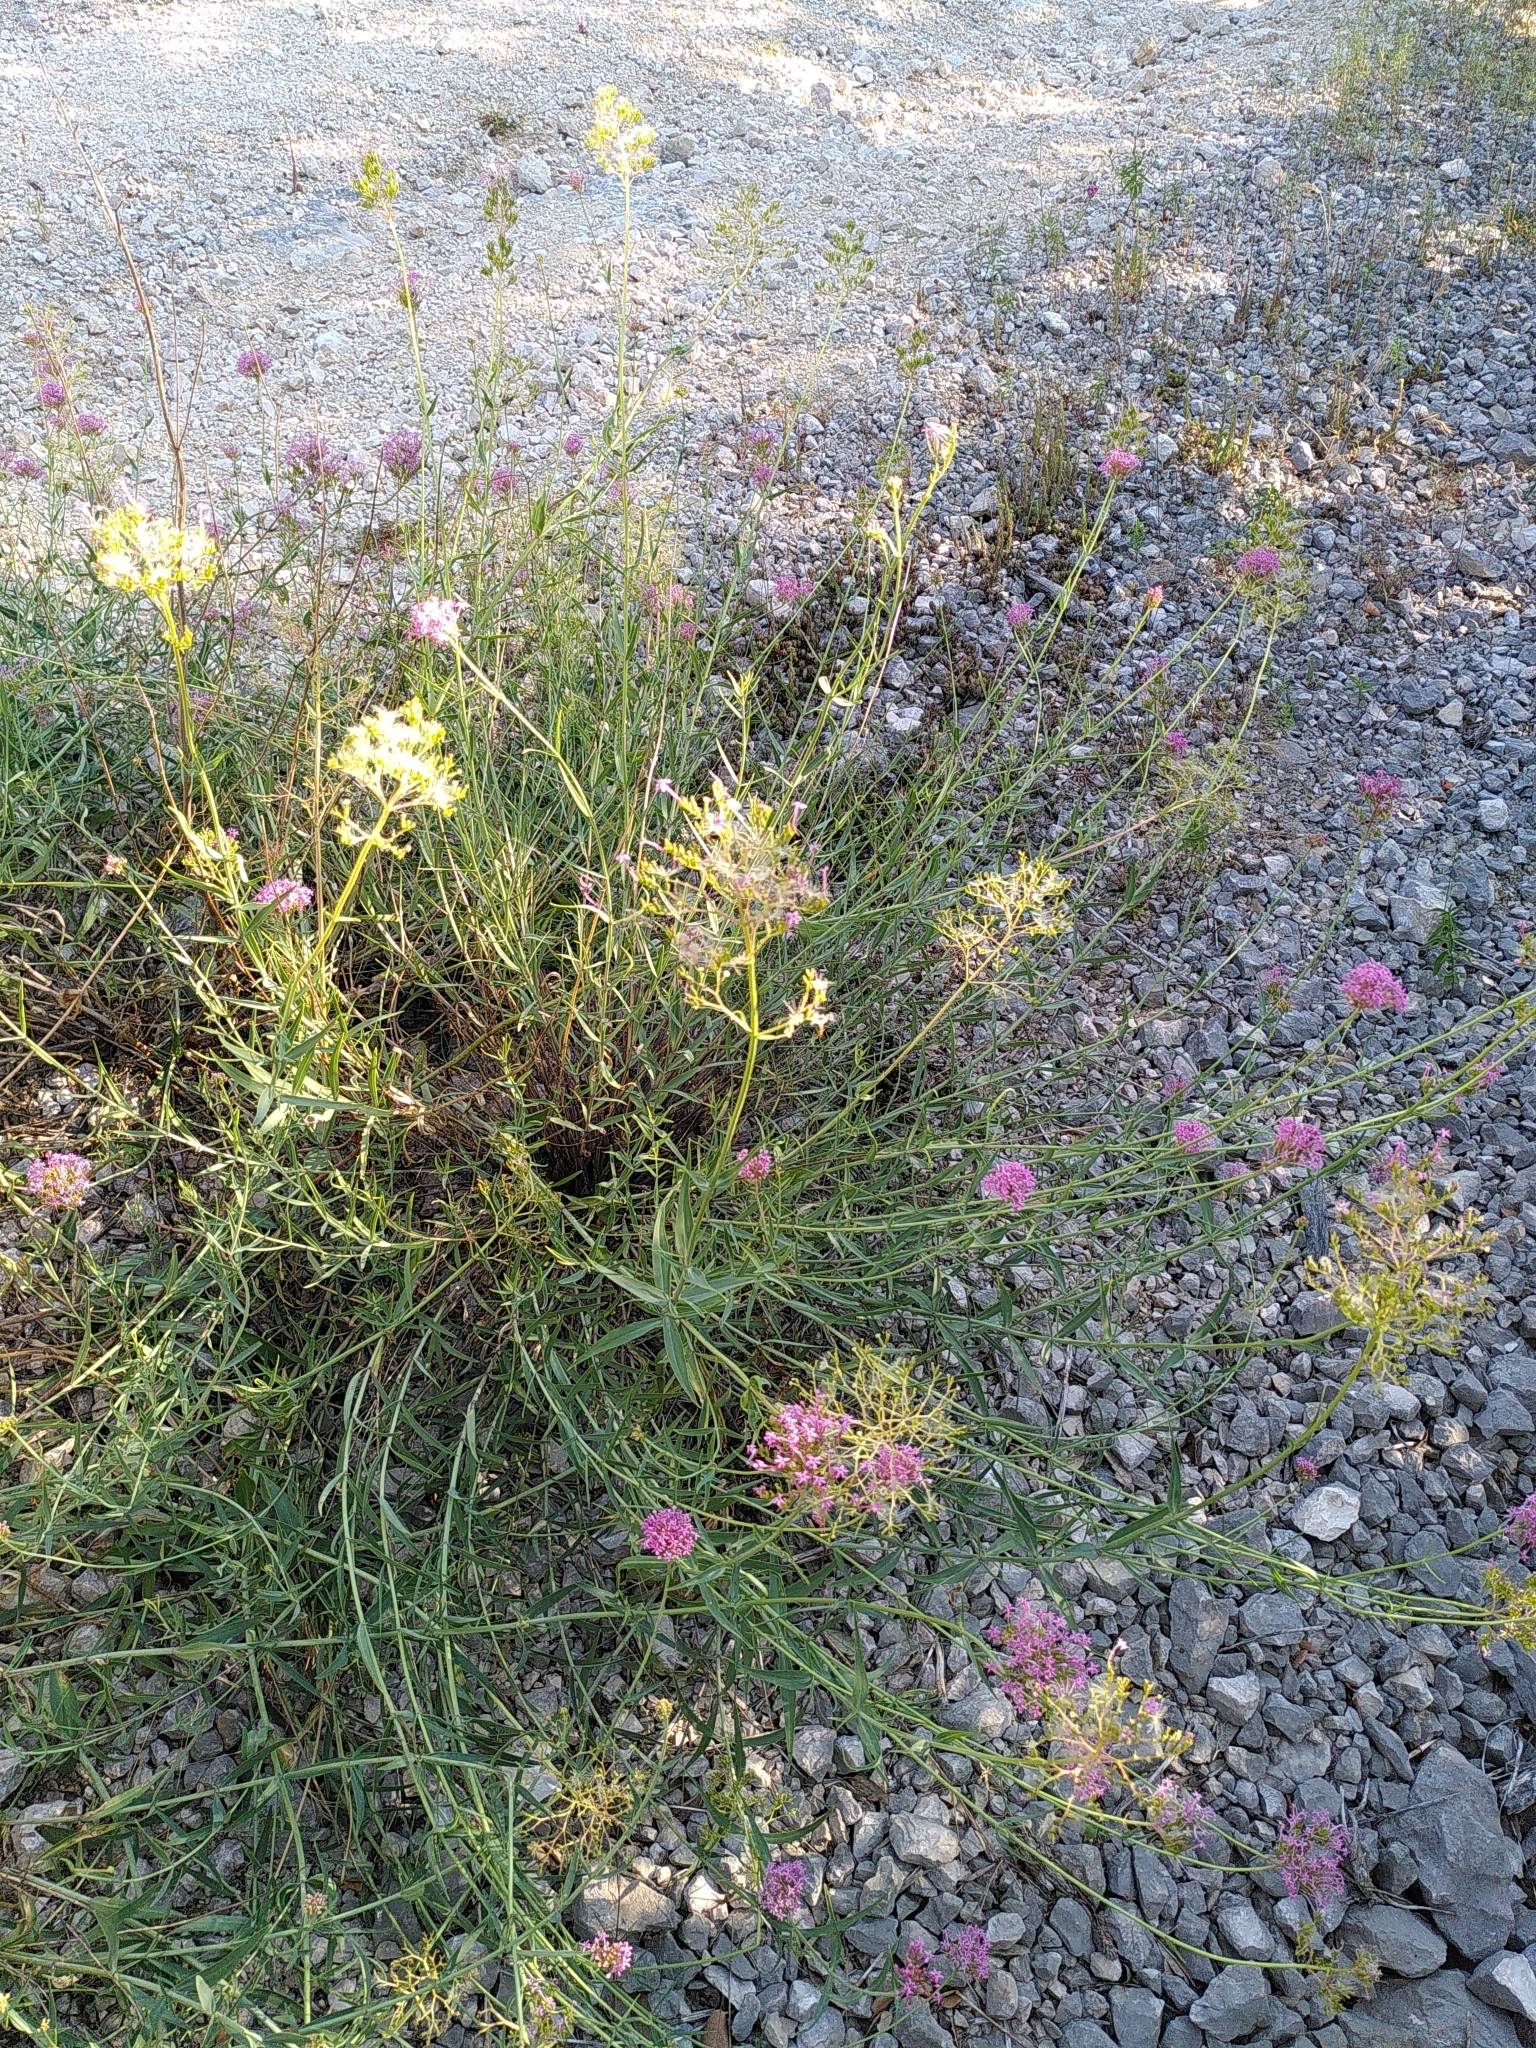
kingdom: Plantae
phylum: Tracheophyta
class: Magnoliopsida
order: Dipsacales
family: Caprifoliaceae
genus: Centranthus
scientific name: Centranthus lecoqii
